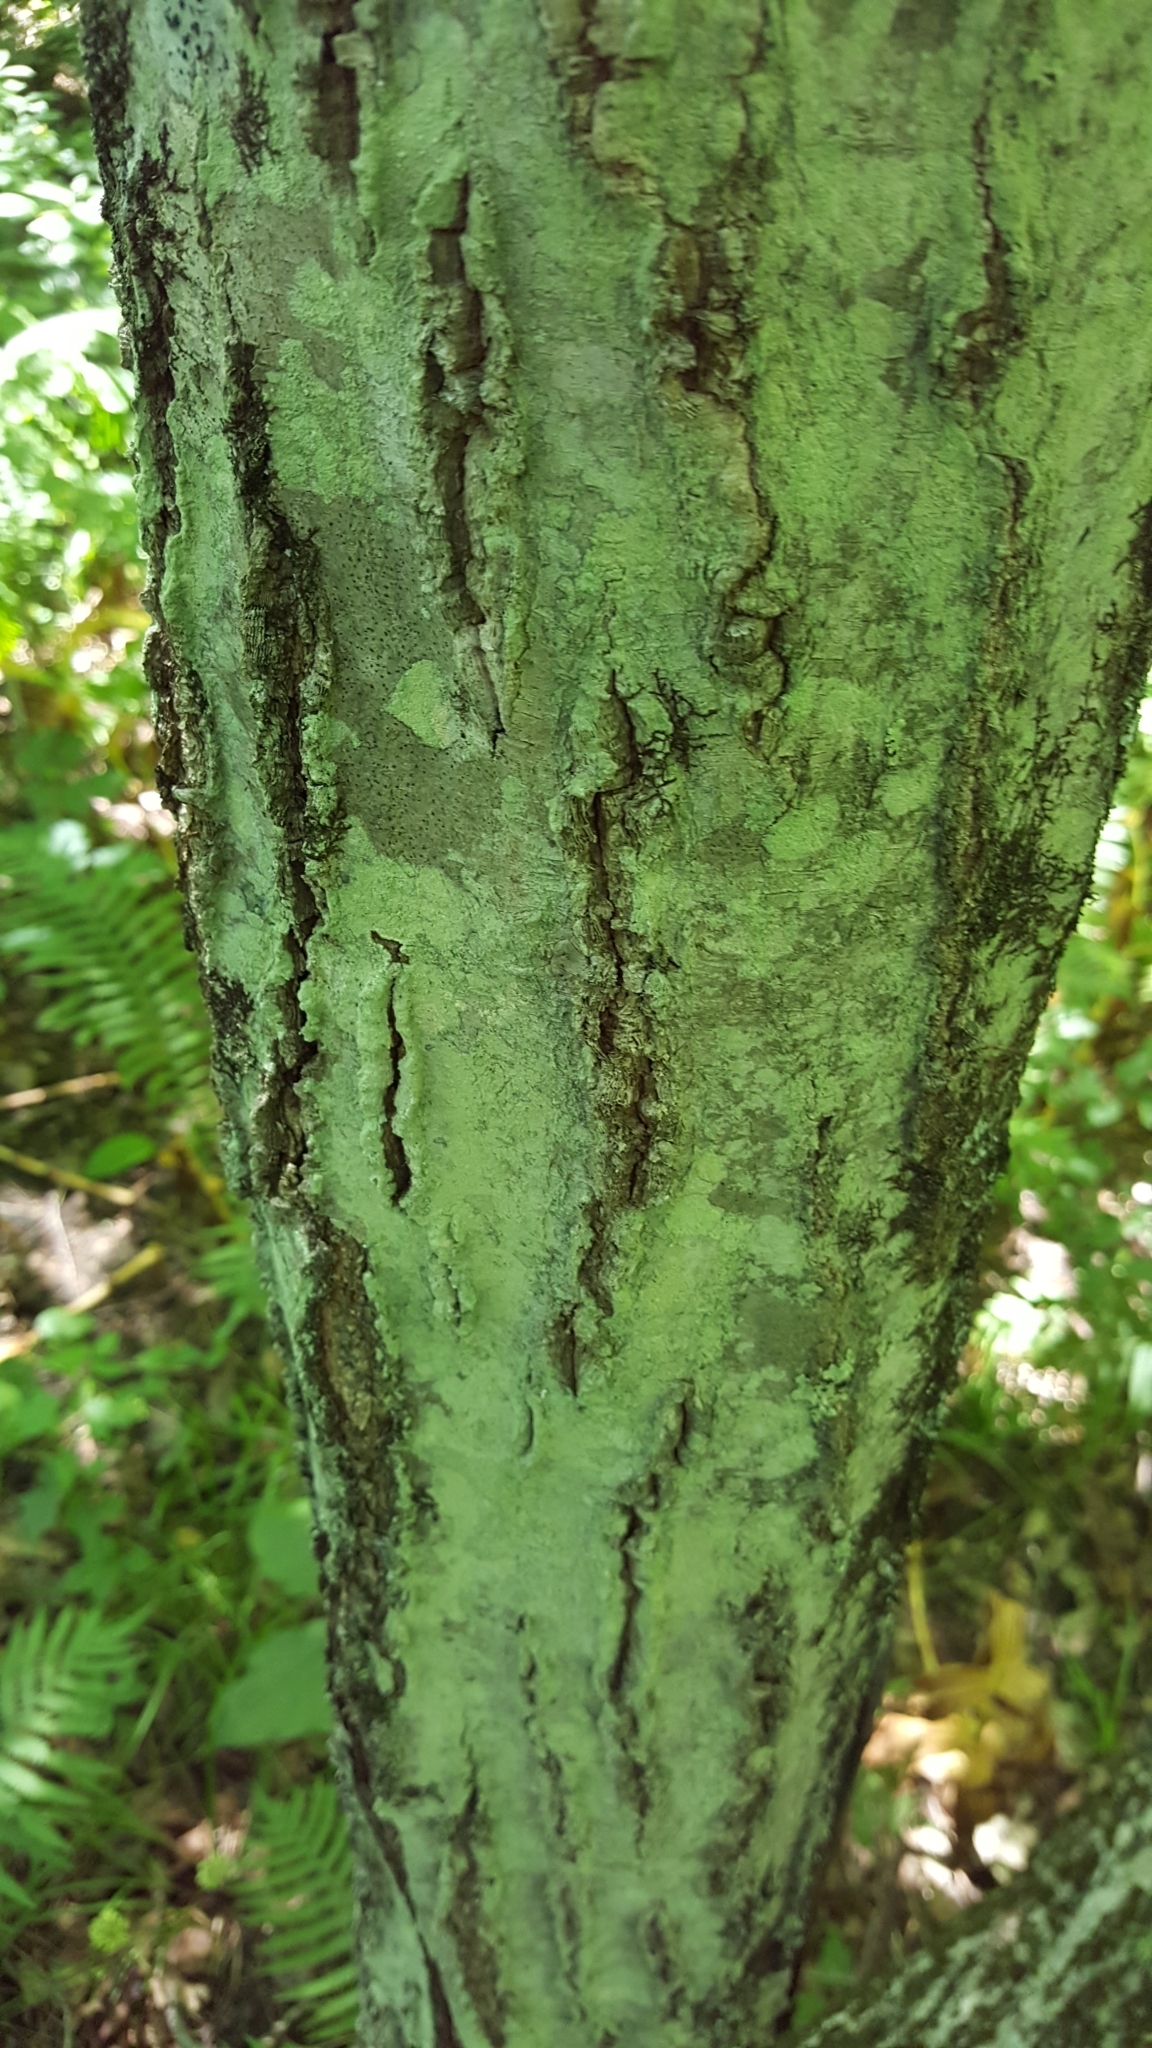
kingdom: Plantae
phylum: Tracheophyta
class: Magnoliopsida
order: Fagales
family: Betulaceae
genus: Carpinus
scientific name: Carpinus caroliniana
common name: American hornbeam
